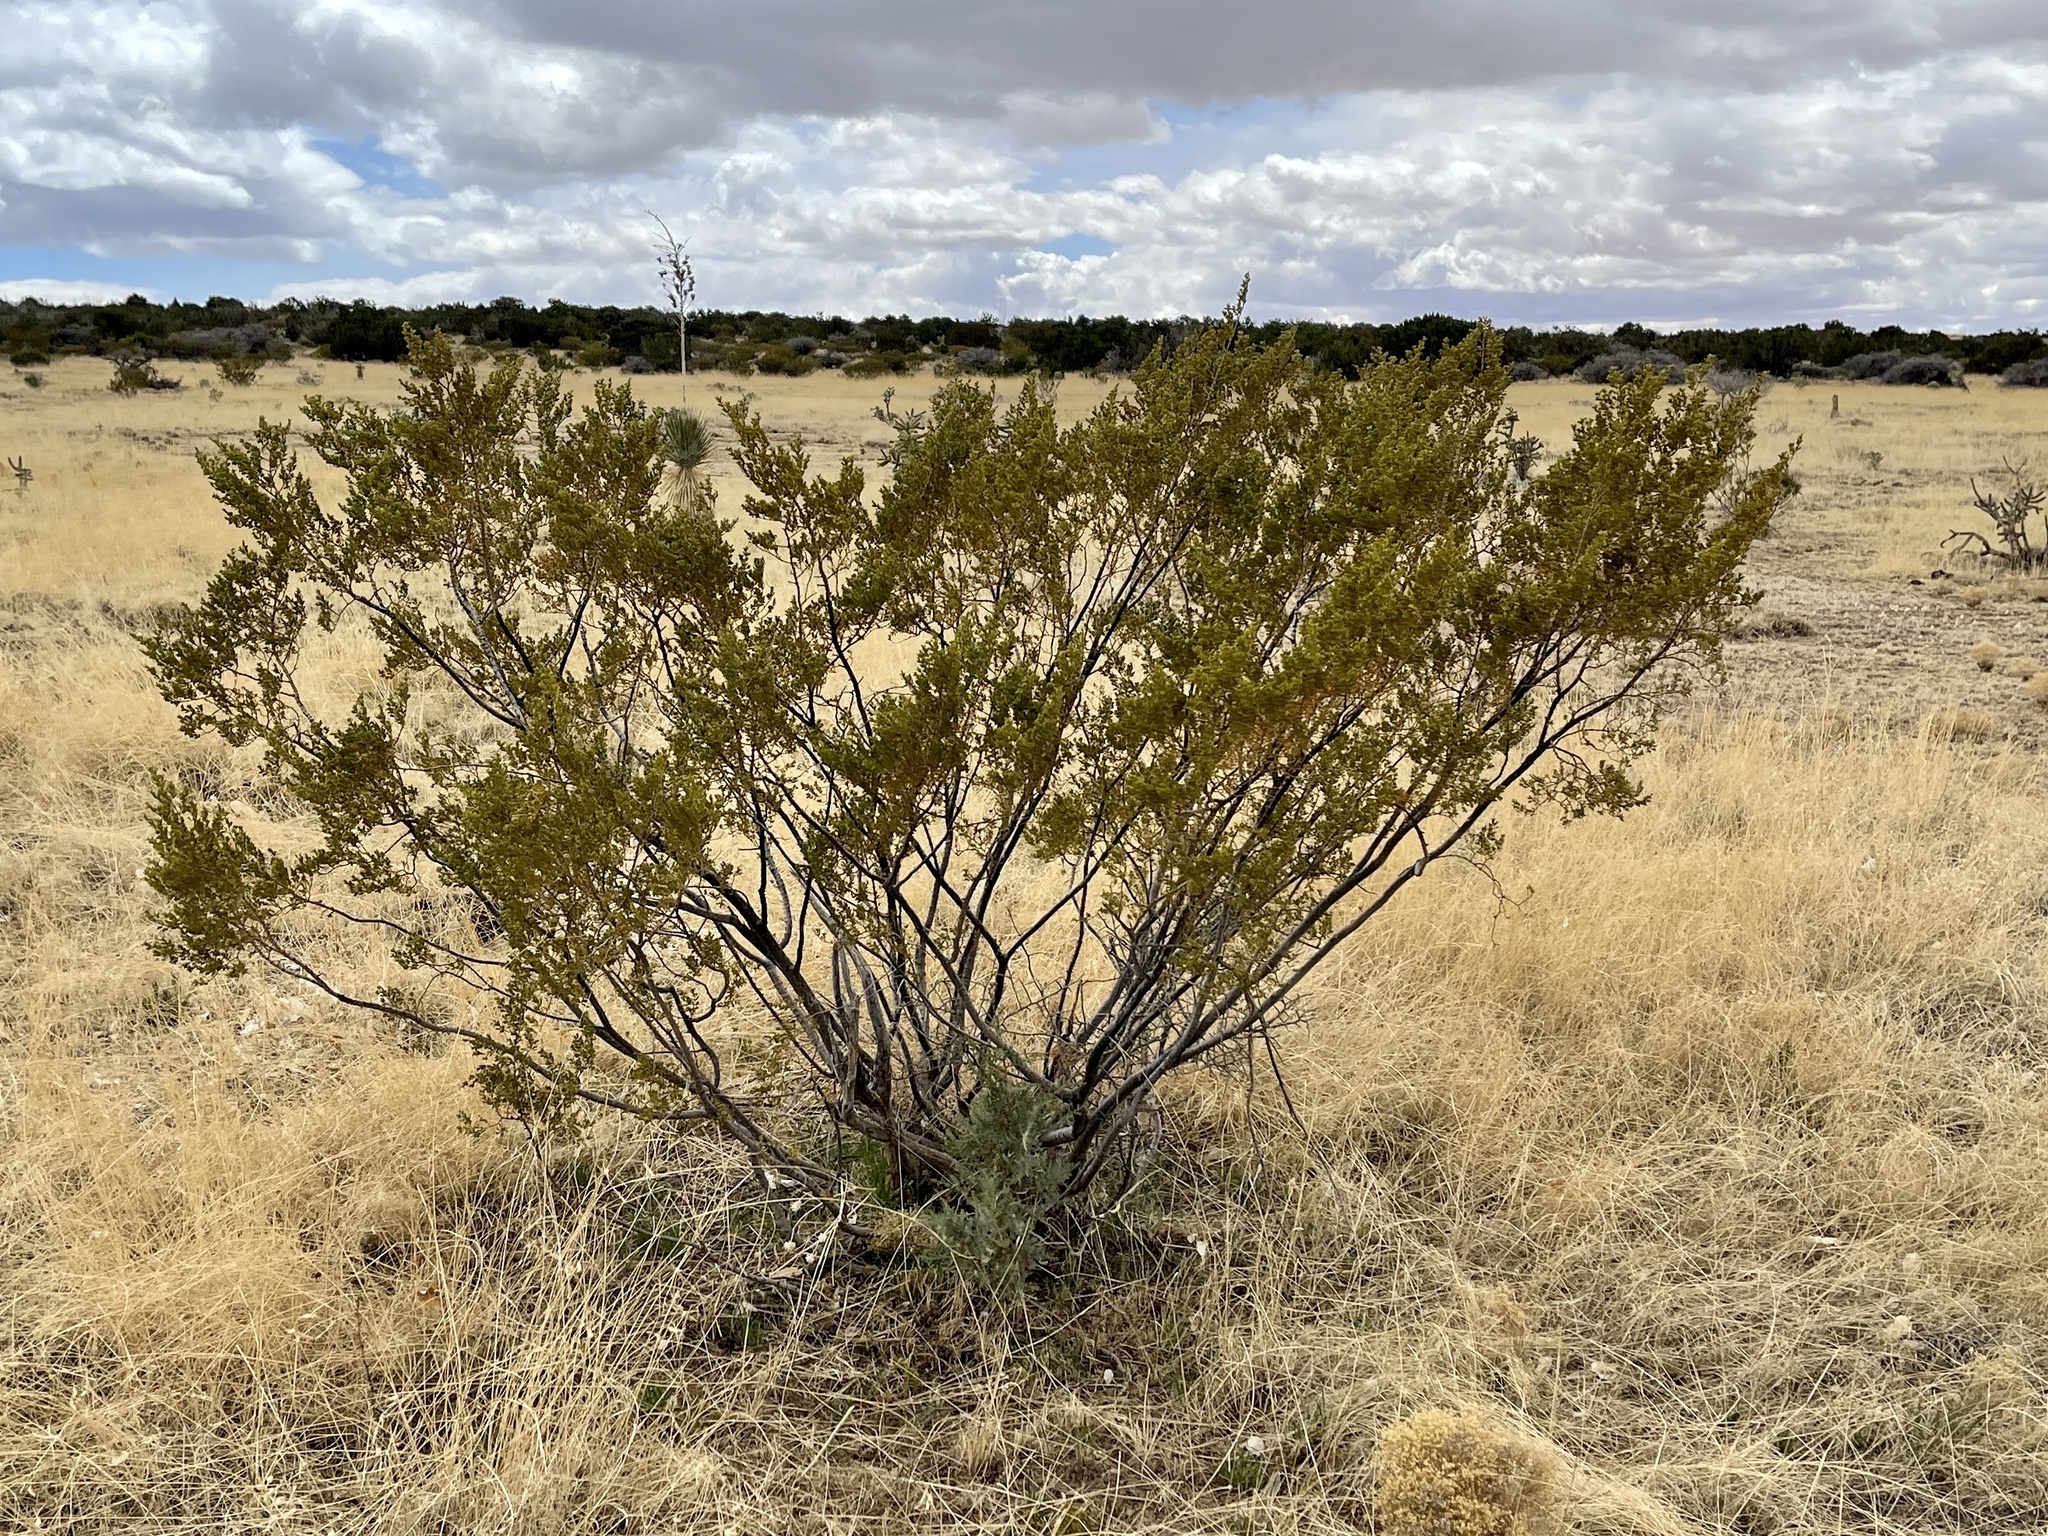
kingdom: Plantae
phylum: Tracheophyta
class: Magnoliopsida
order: Zygophyllales
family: Zygophyllaceae
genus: Larrea
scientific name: Larrea tridentata
